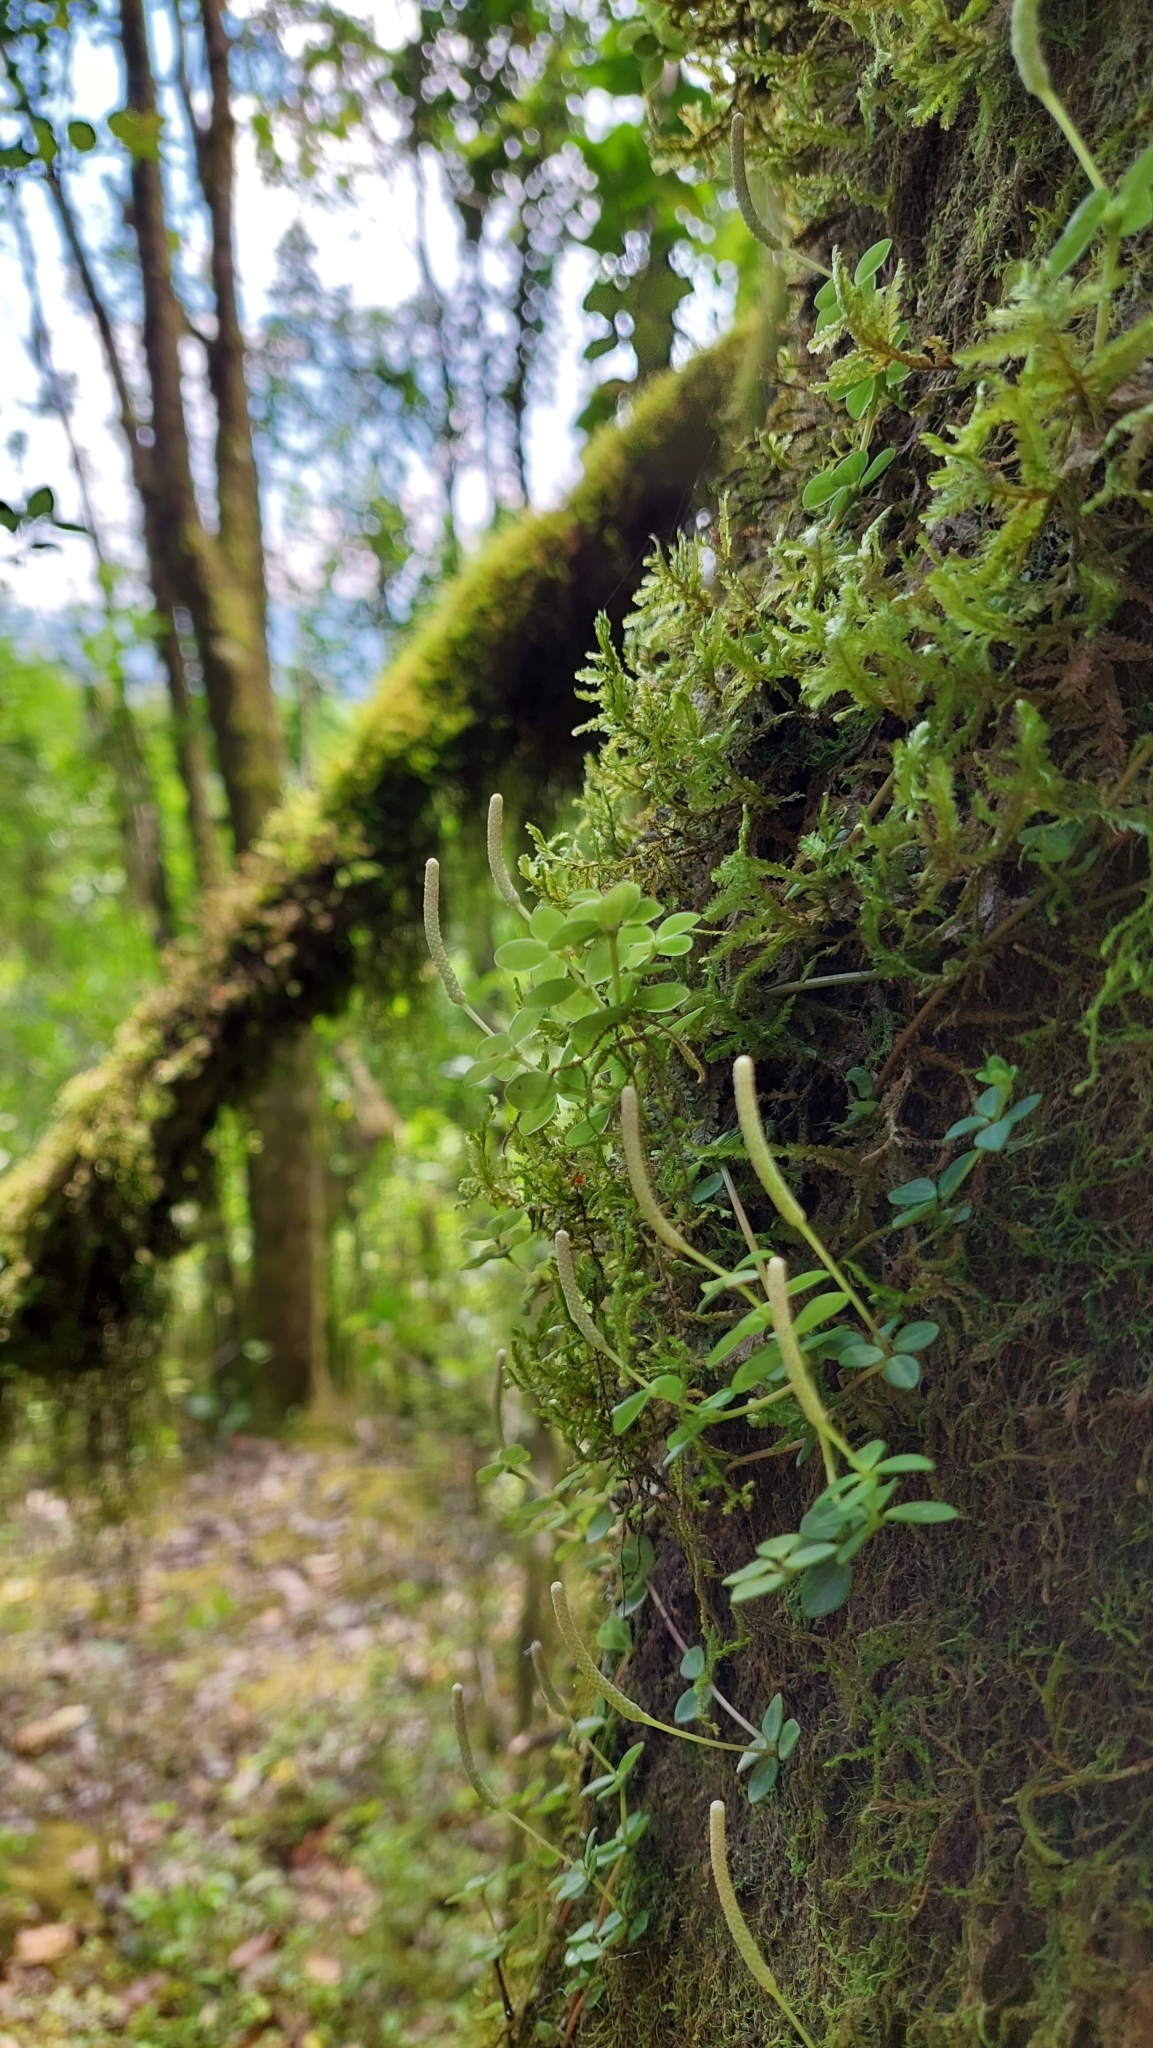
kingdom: Plantae
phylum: Tracheophyta
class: Magnoliopsida
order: Piperales
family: Piperaceae
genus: Peperomia
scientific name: Peperomia tetraphylla
